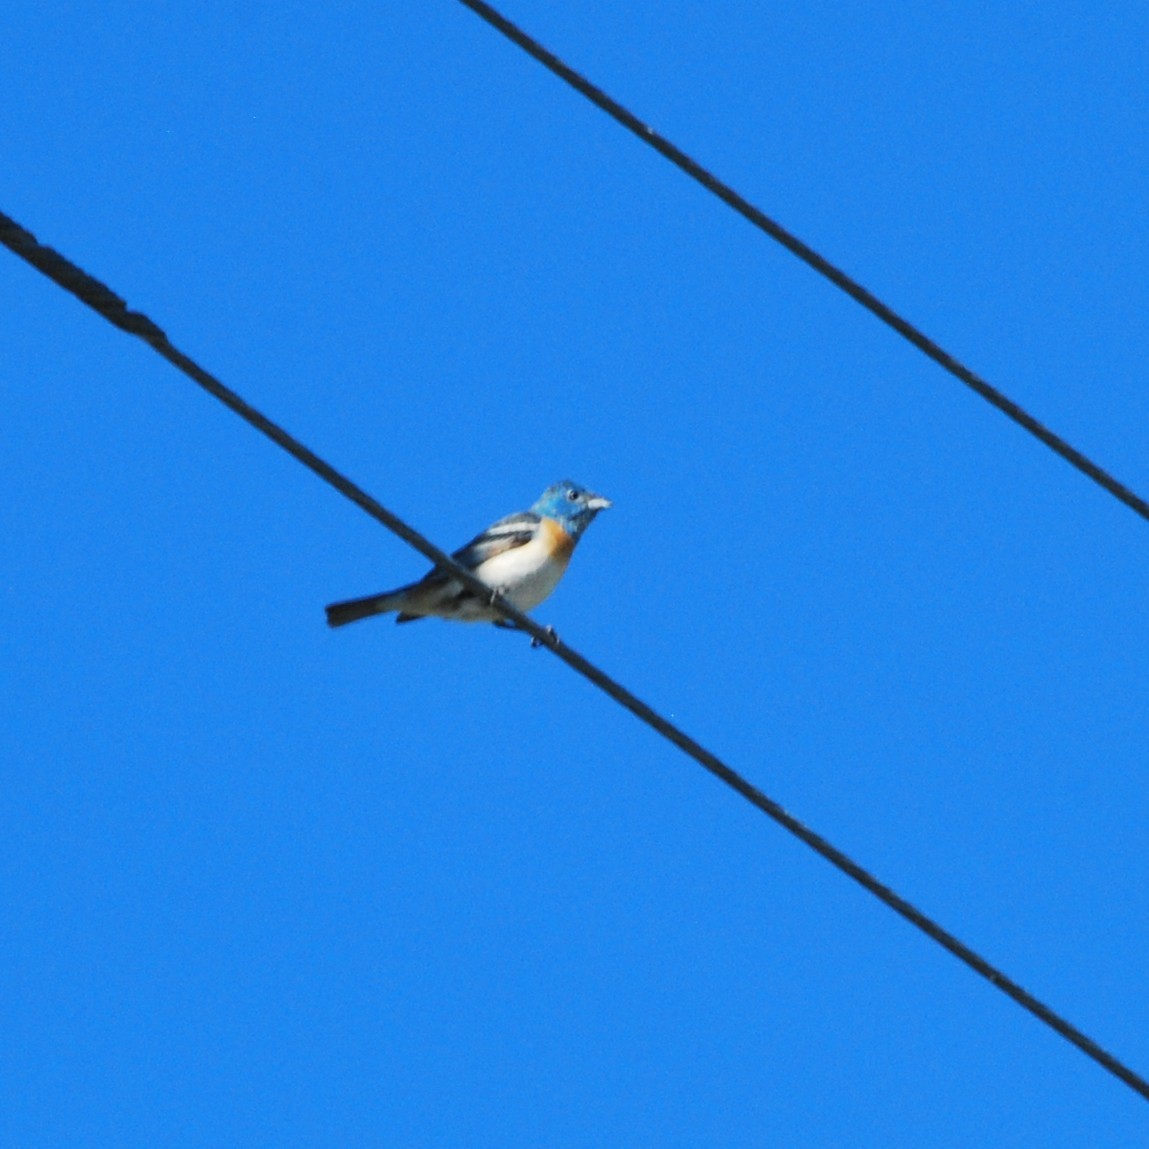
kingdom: Animalia
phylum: Chordata
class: Aves
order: Passeriformes
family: Cardinalidae
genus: Passerina
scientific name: Passerina amoena
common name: Lazuli bunting
